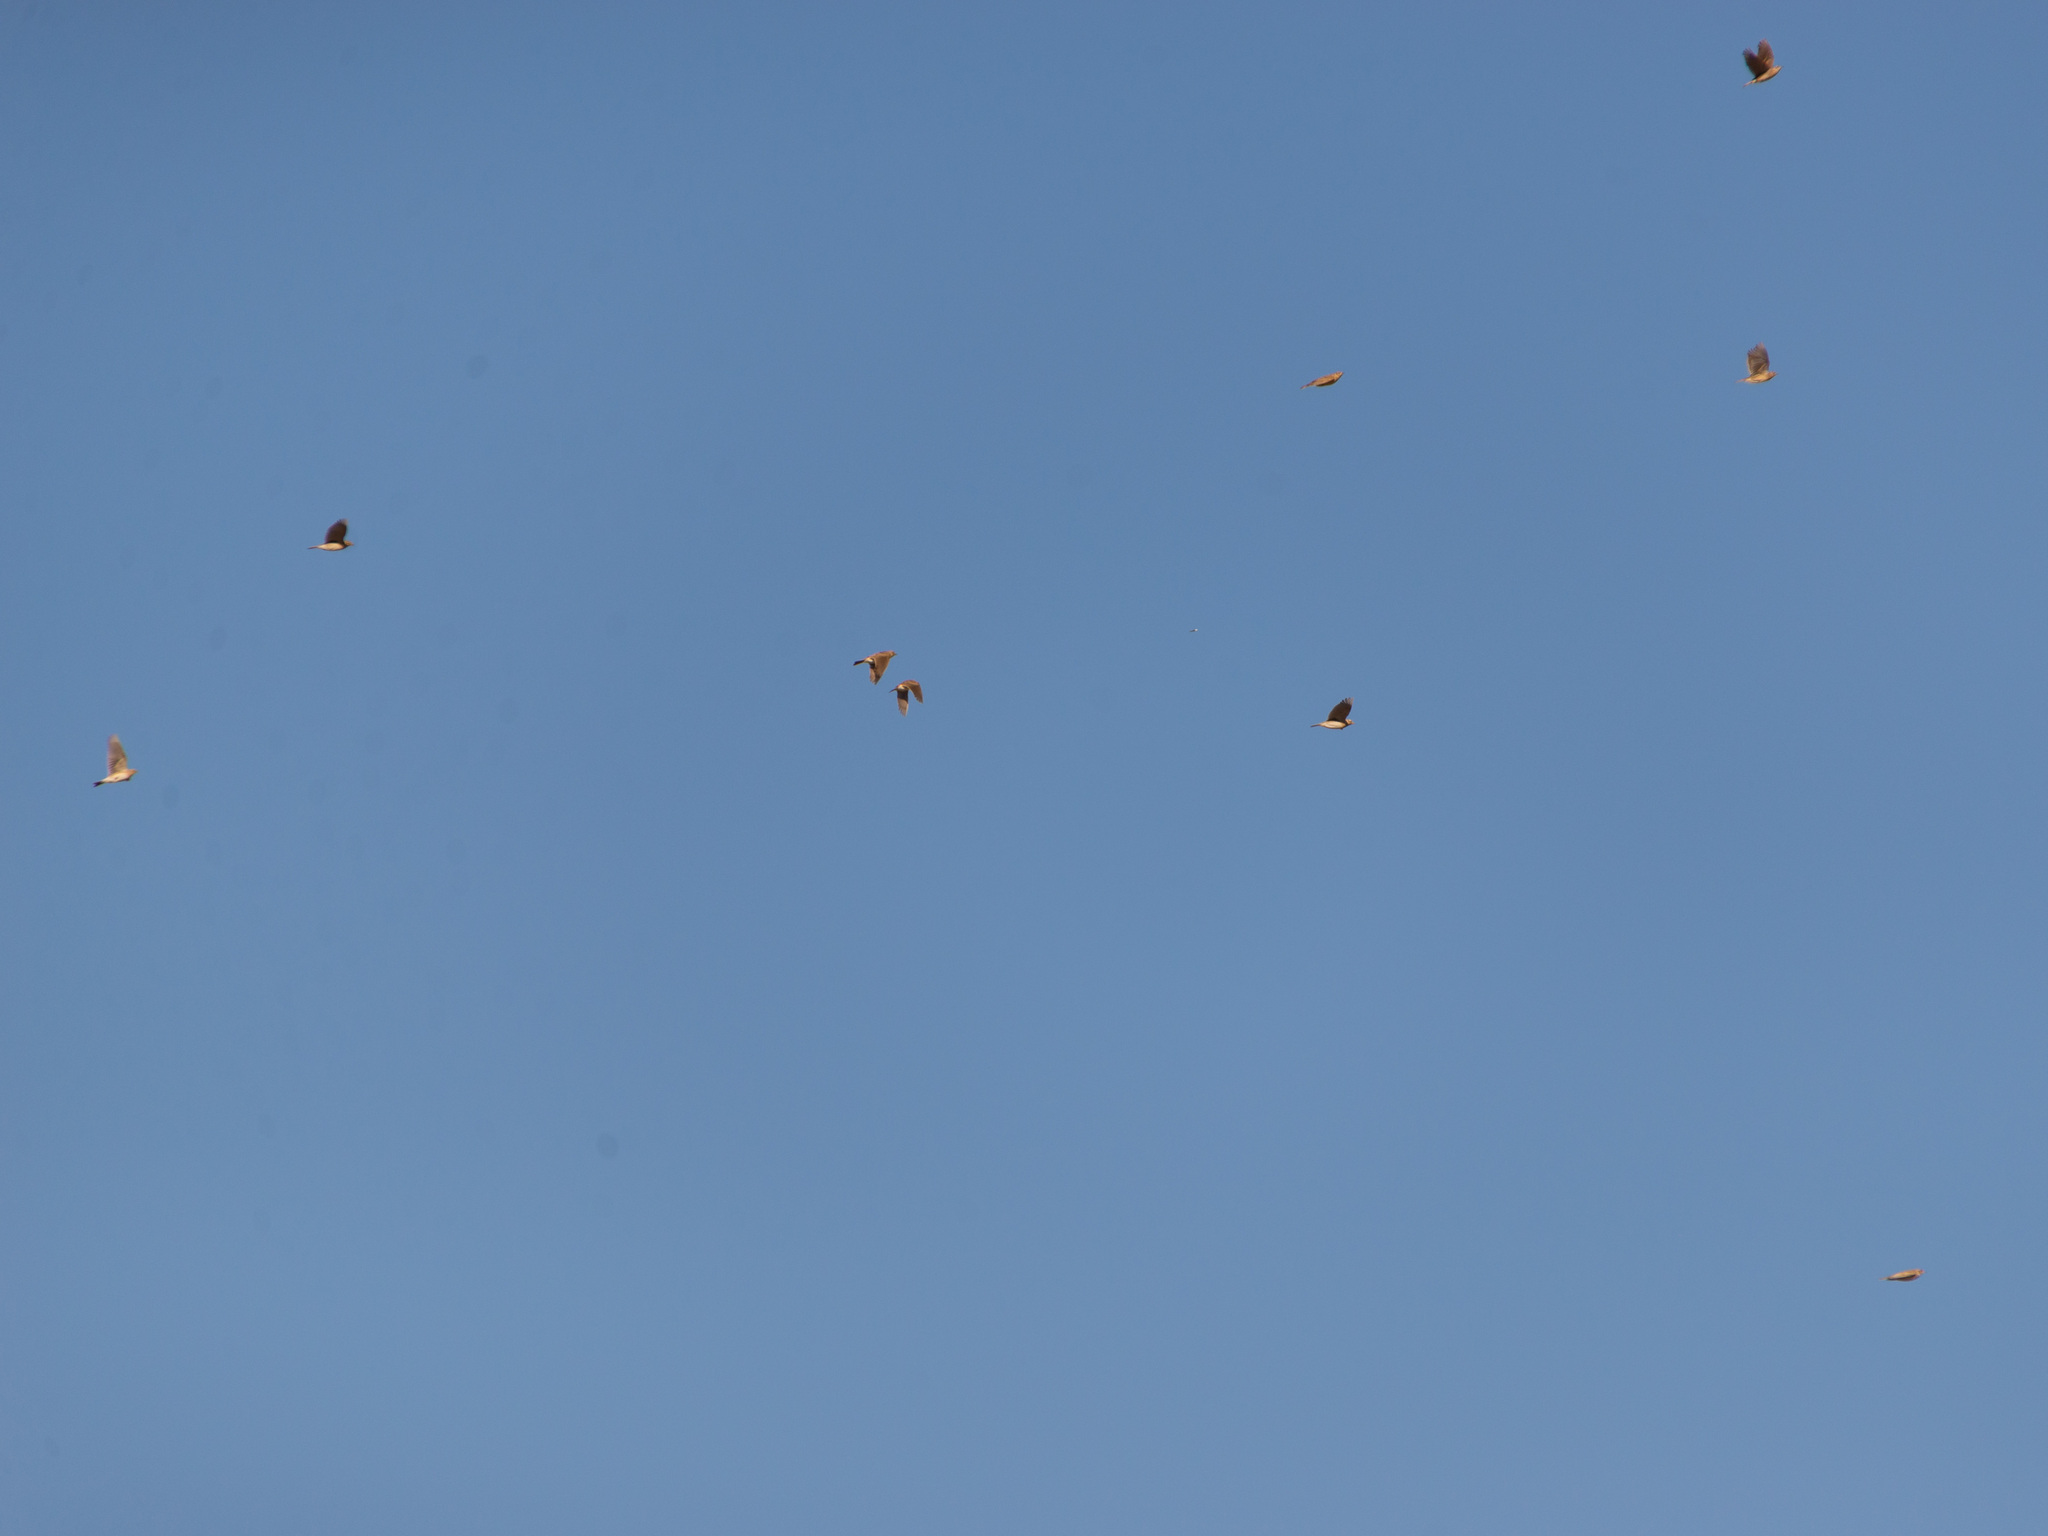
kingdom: Animalia
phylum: Chordata
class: Aves
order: Passeriformes
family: Alaudidae
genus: Alauda
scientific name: Alauda arvensis
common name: Eurasian skylark
